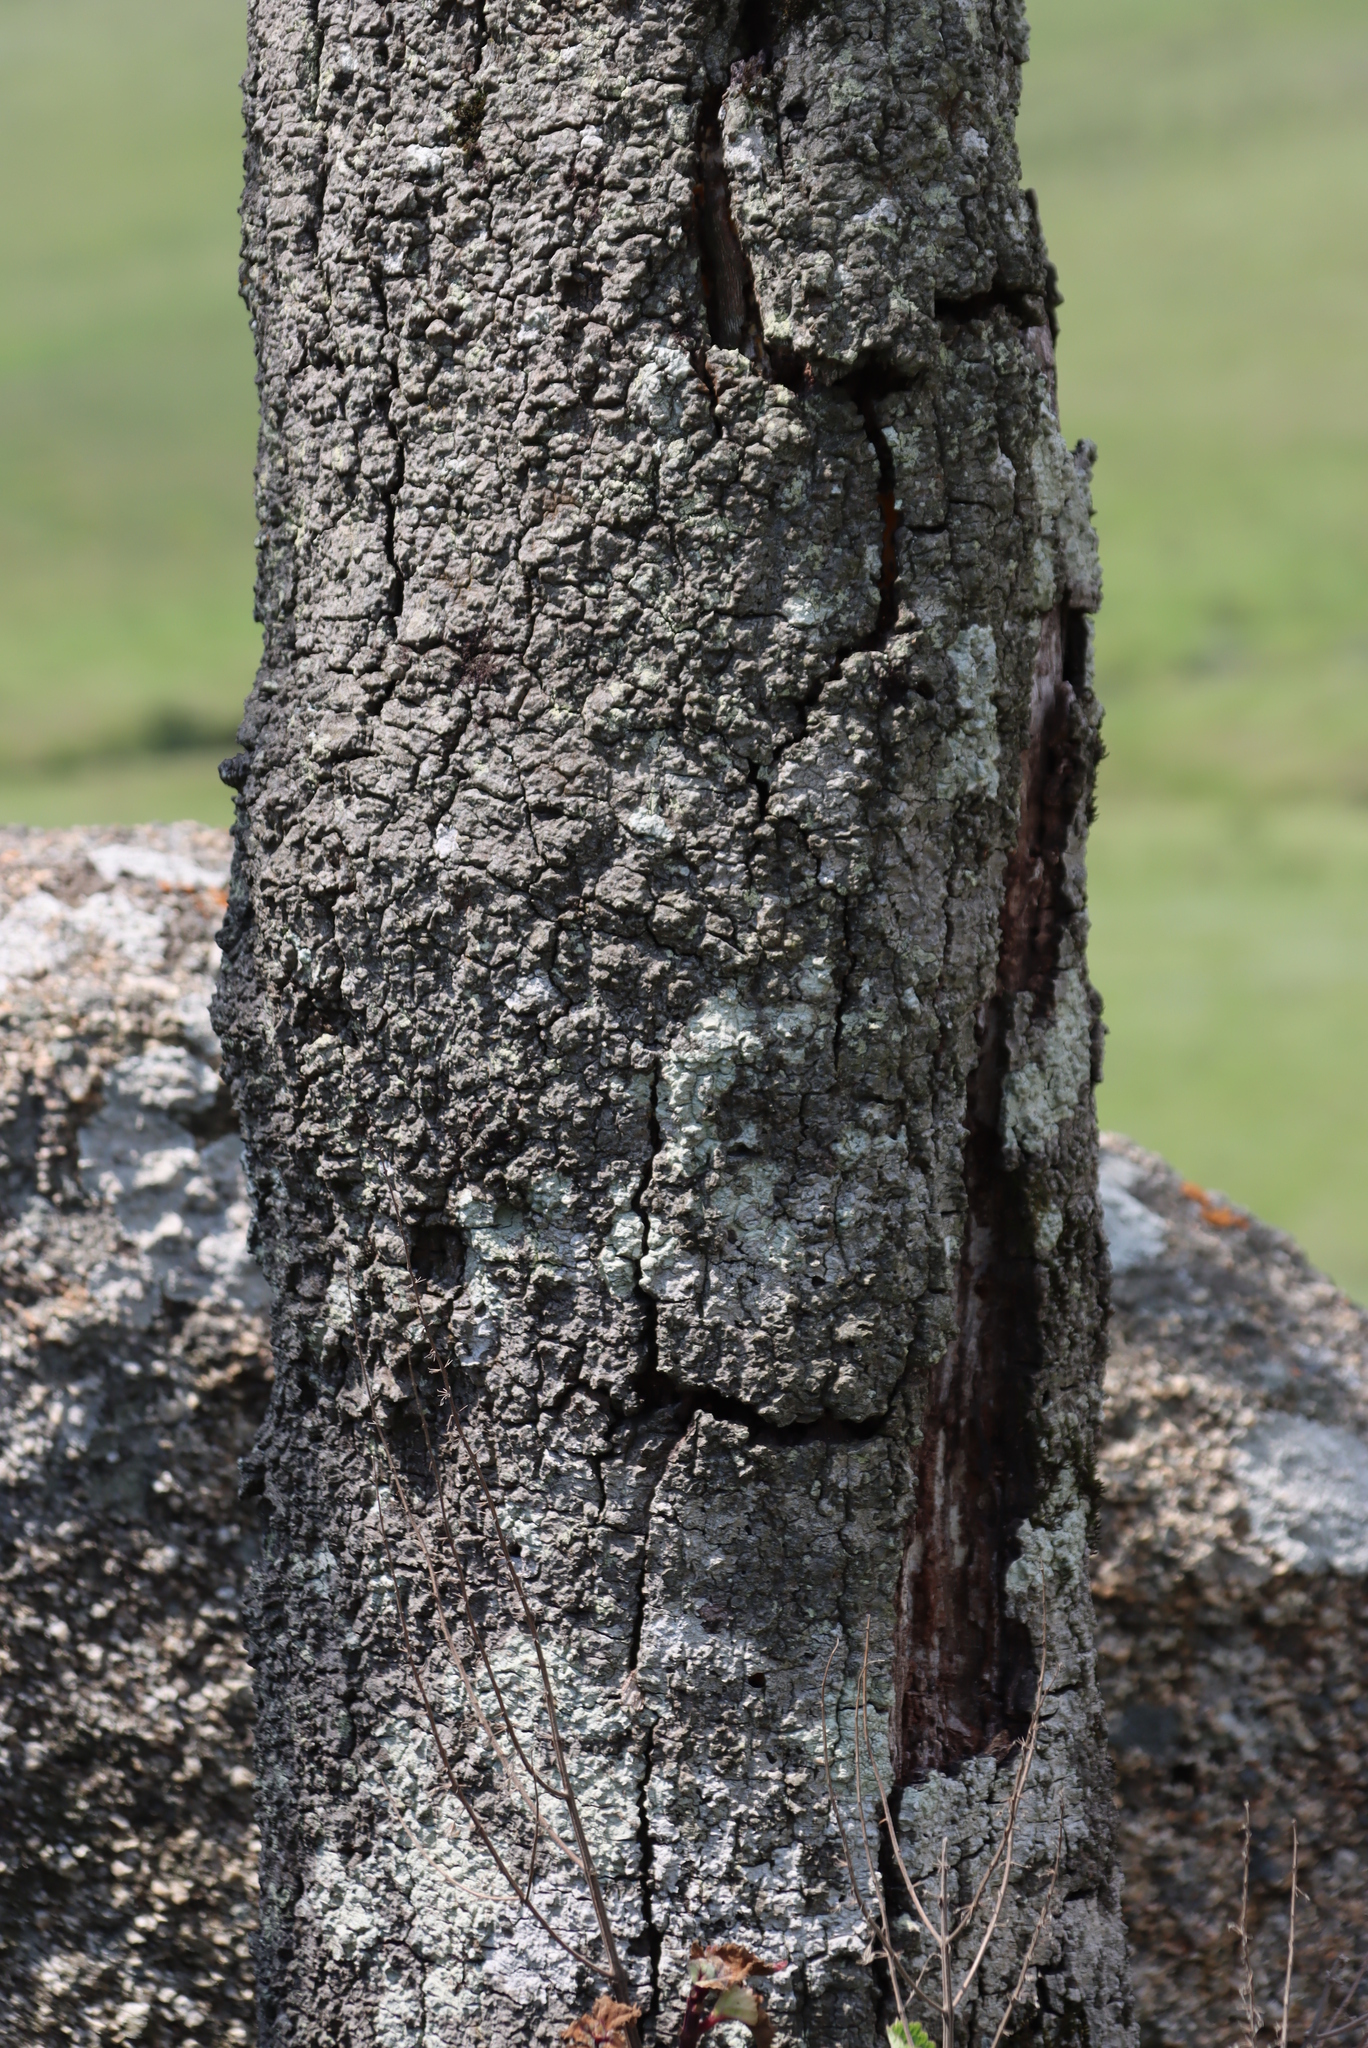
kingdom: Plantae
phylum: Tracheophyta
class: Magnoliopsida
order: Ericales
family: Primulaceae
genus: Myrsine
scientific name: Myrsine melanophloeos
